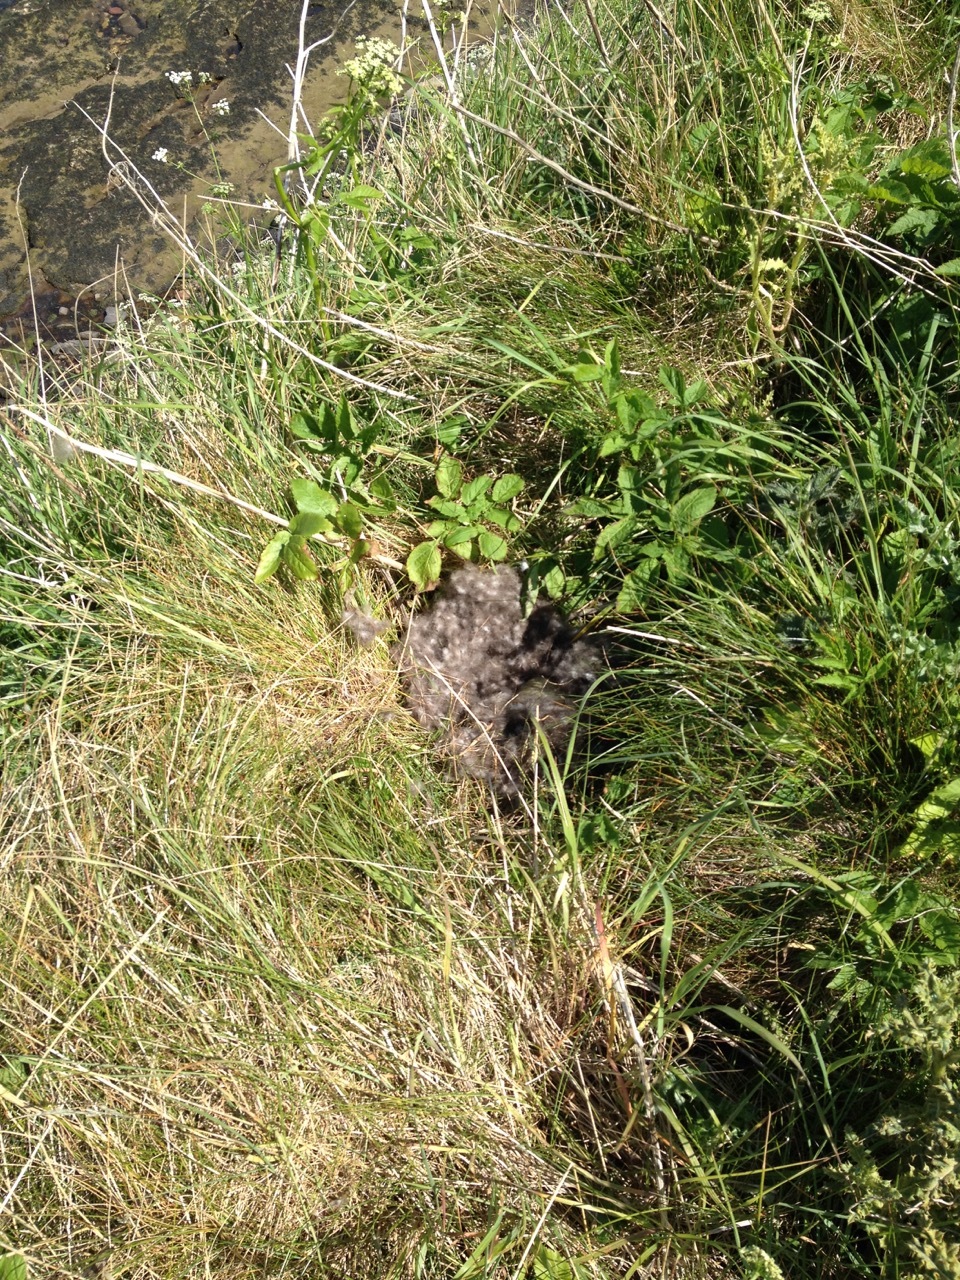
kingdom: Animalia
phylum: Chordata
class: Aves
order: Anseriformes
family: Anatidae
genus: Somateria
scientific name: Somateria mollissima
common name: Common eider
